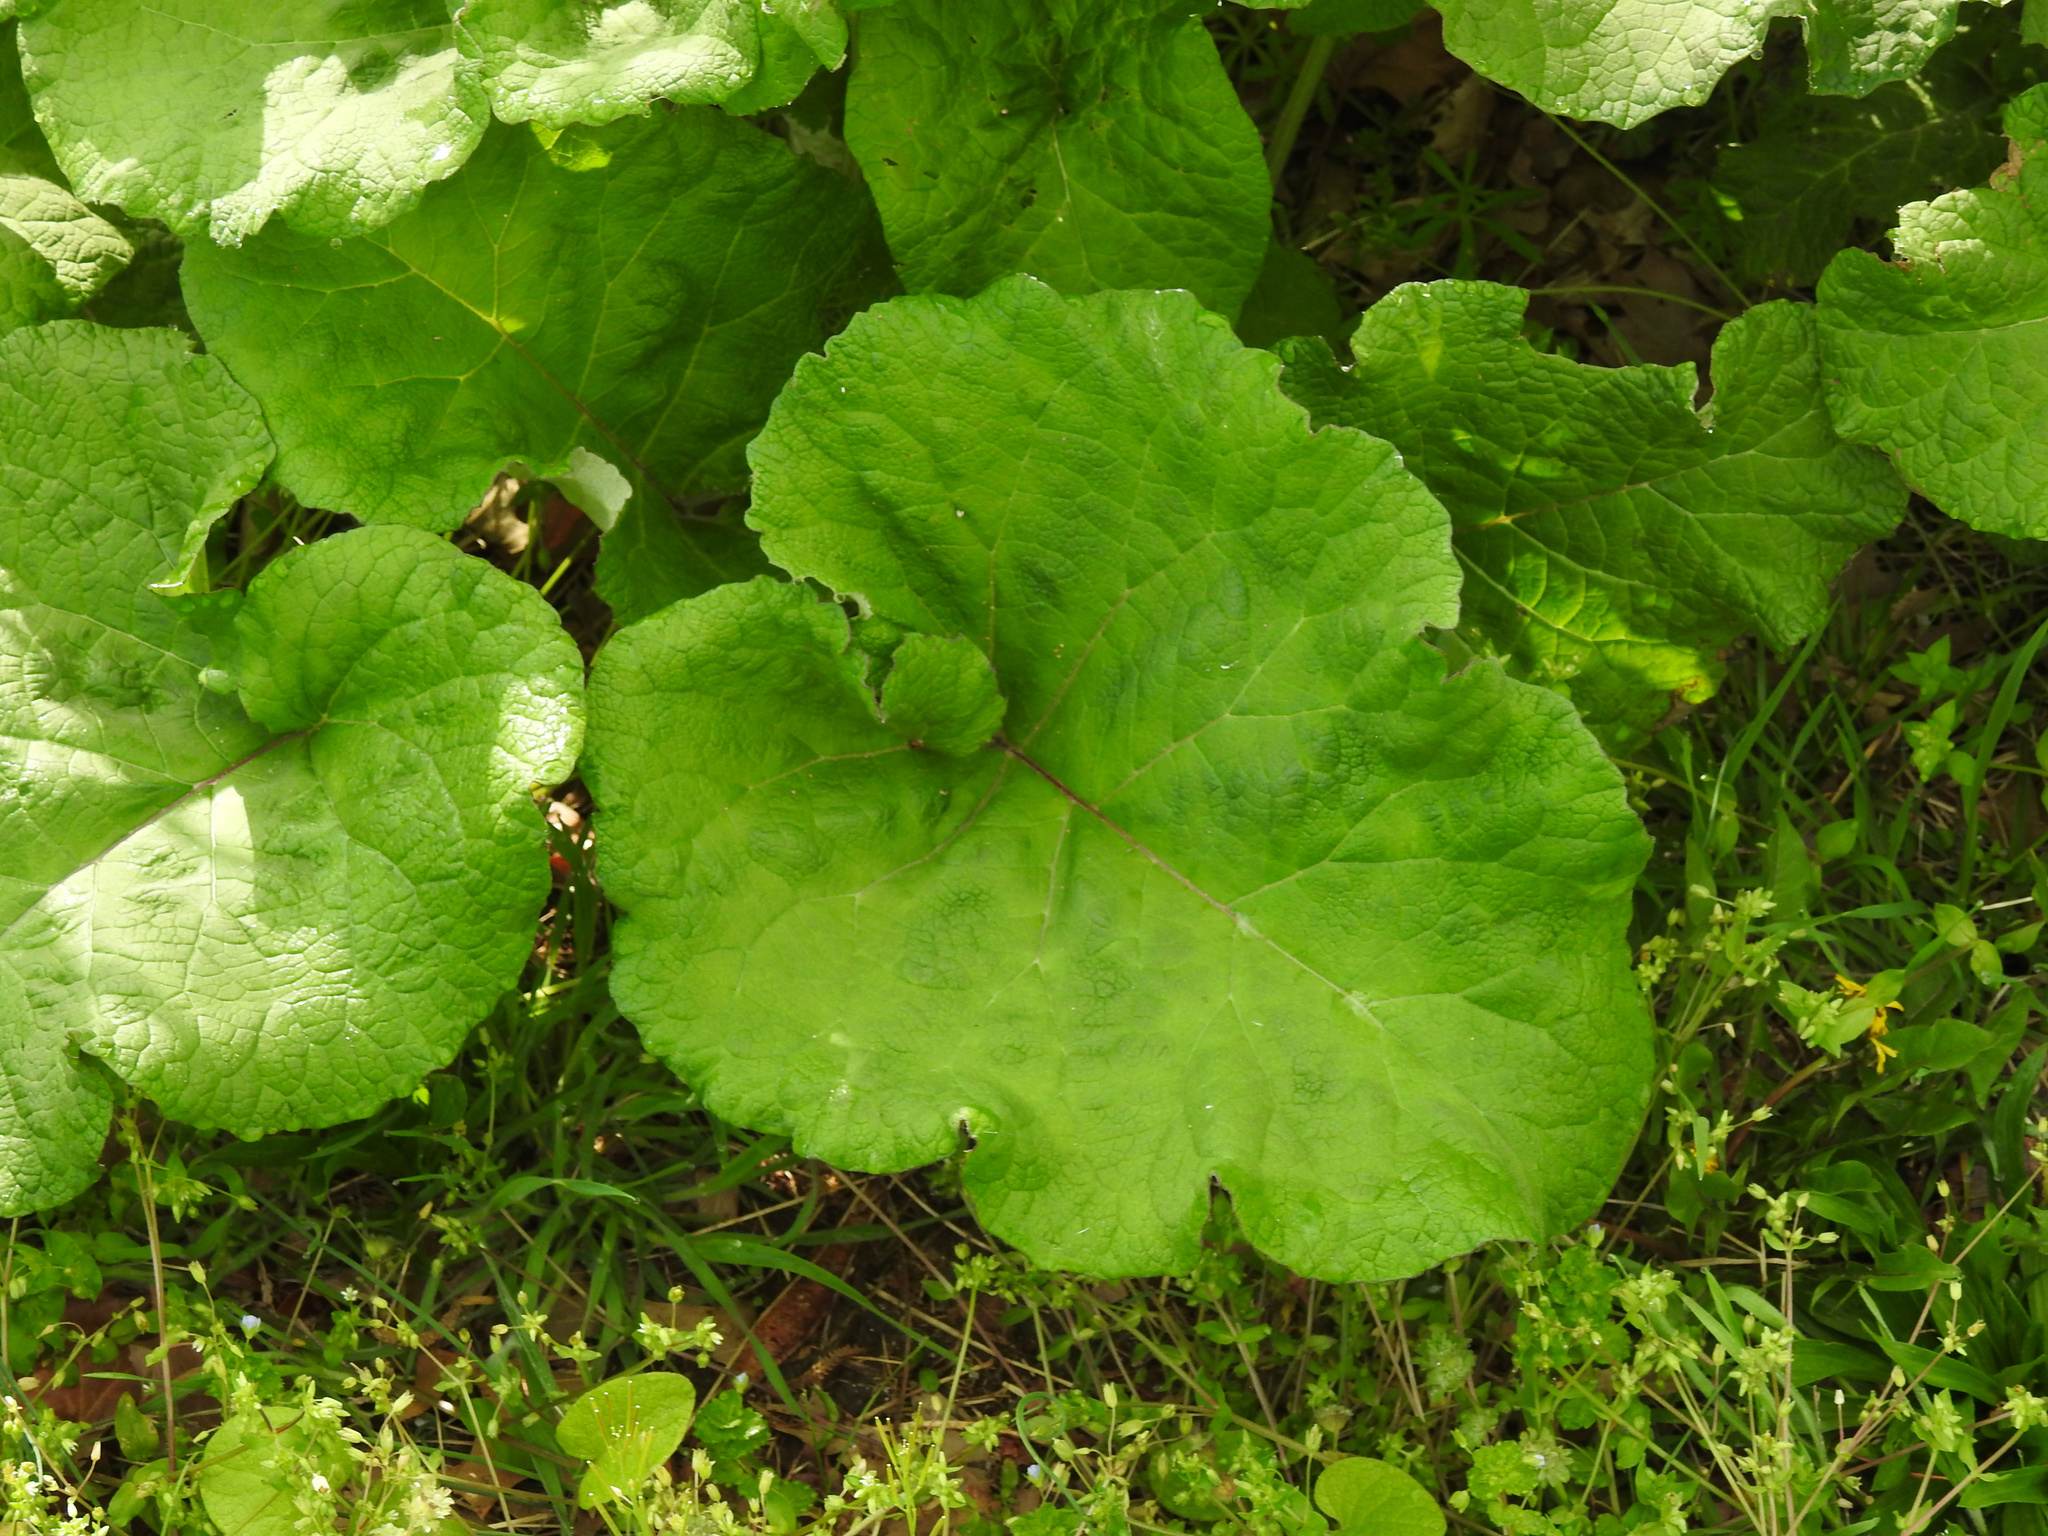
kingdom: Plantae
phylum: Tracheophyta
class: Magnoliopsida
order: Asterales
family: Asteraceae
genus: Arctium
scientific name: Arctium
